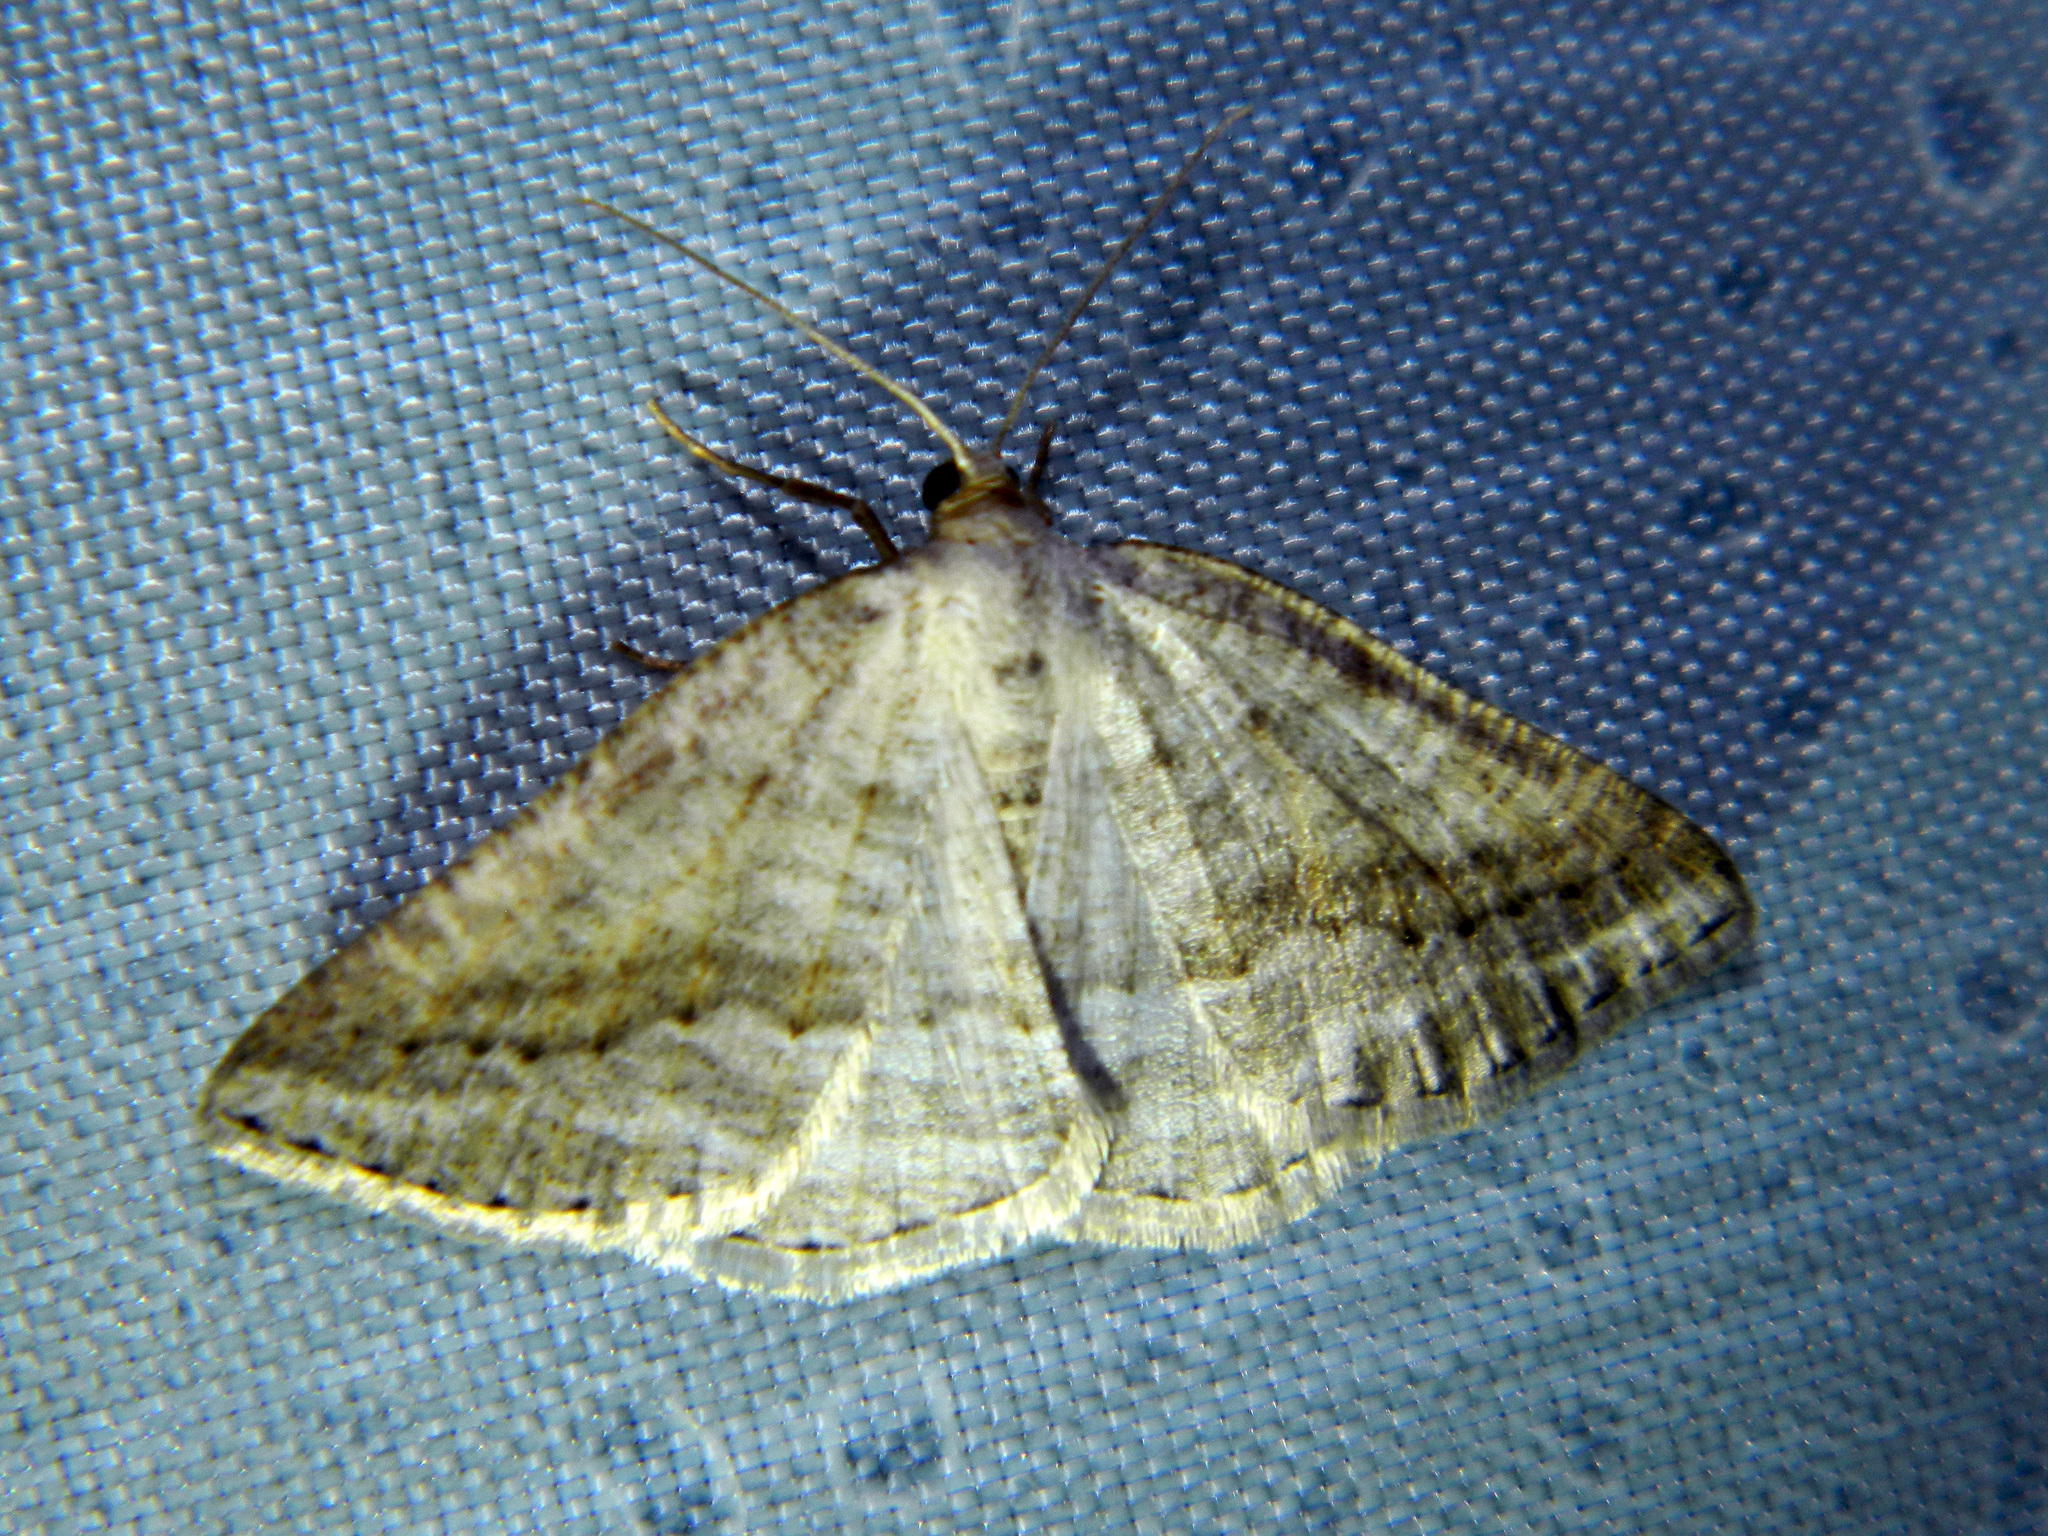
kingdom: Animalia
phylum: Arthropoda
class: Insecta
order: Lepidoptera
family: Geometridae
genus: Tacparia
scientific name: Tacparia detersata
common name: Pale alder moth
